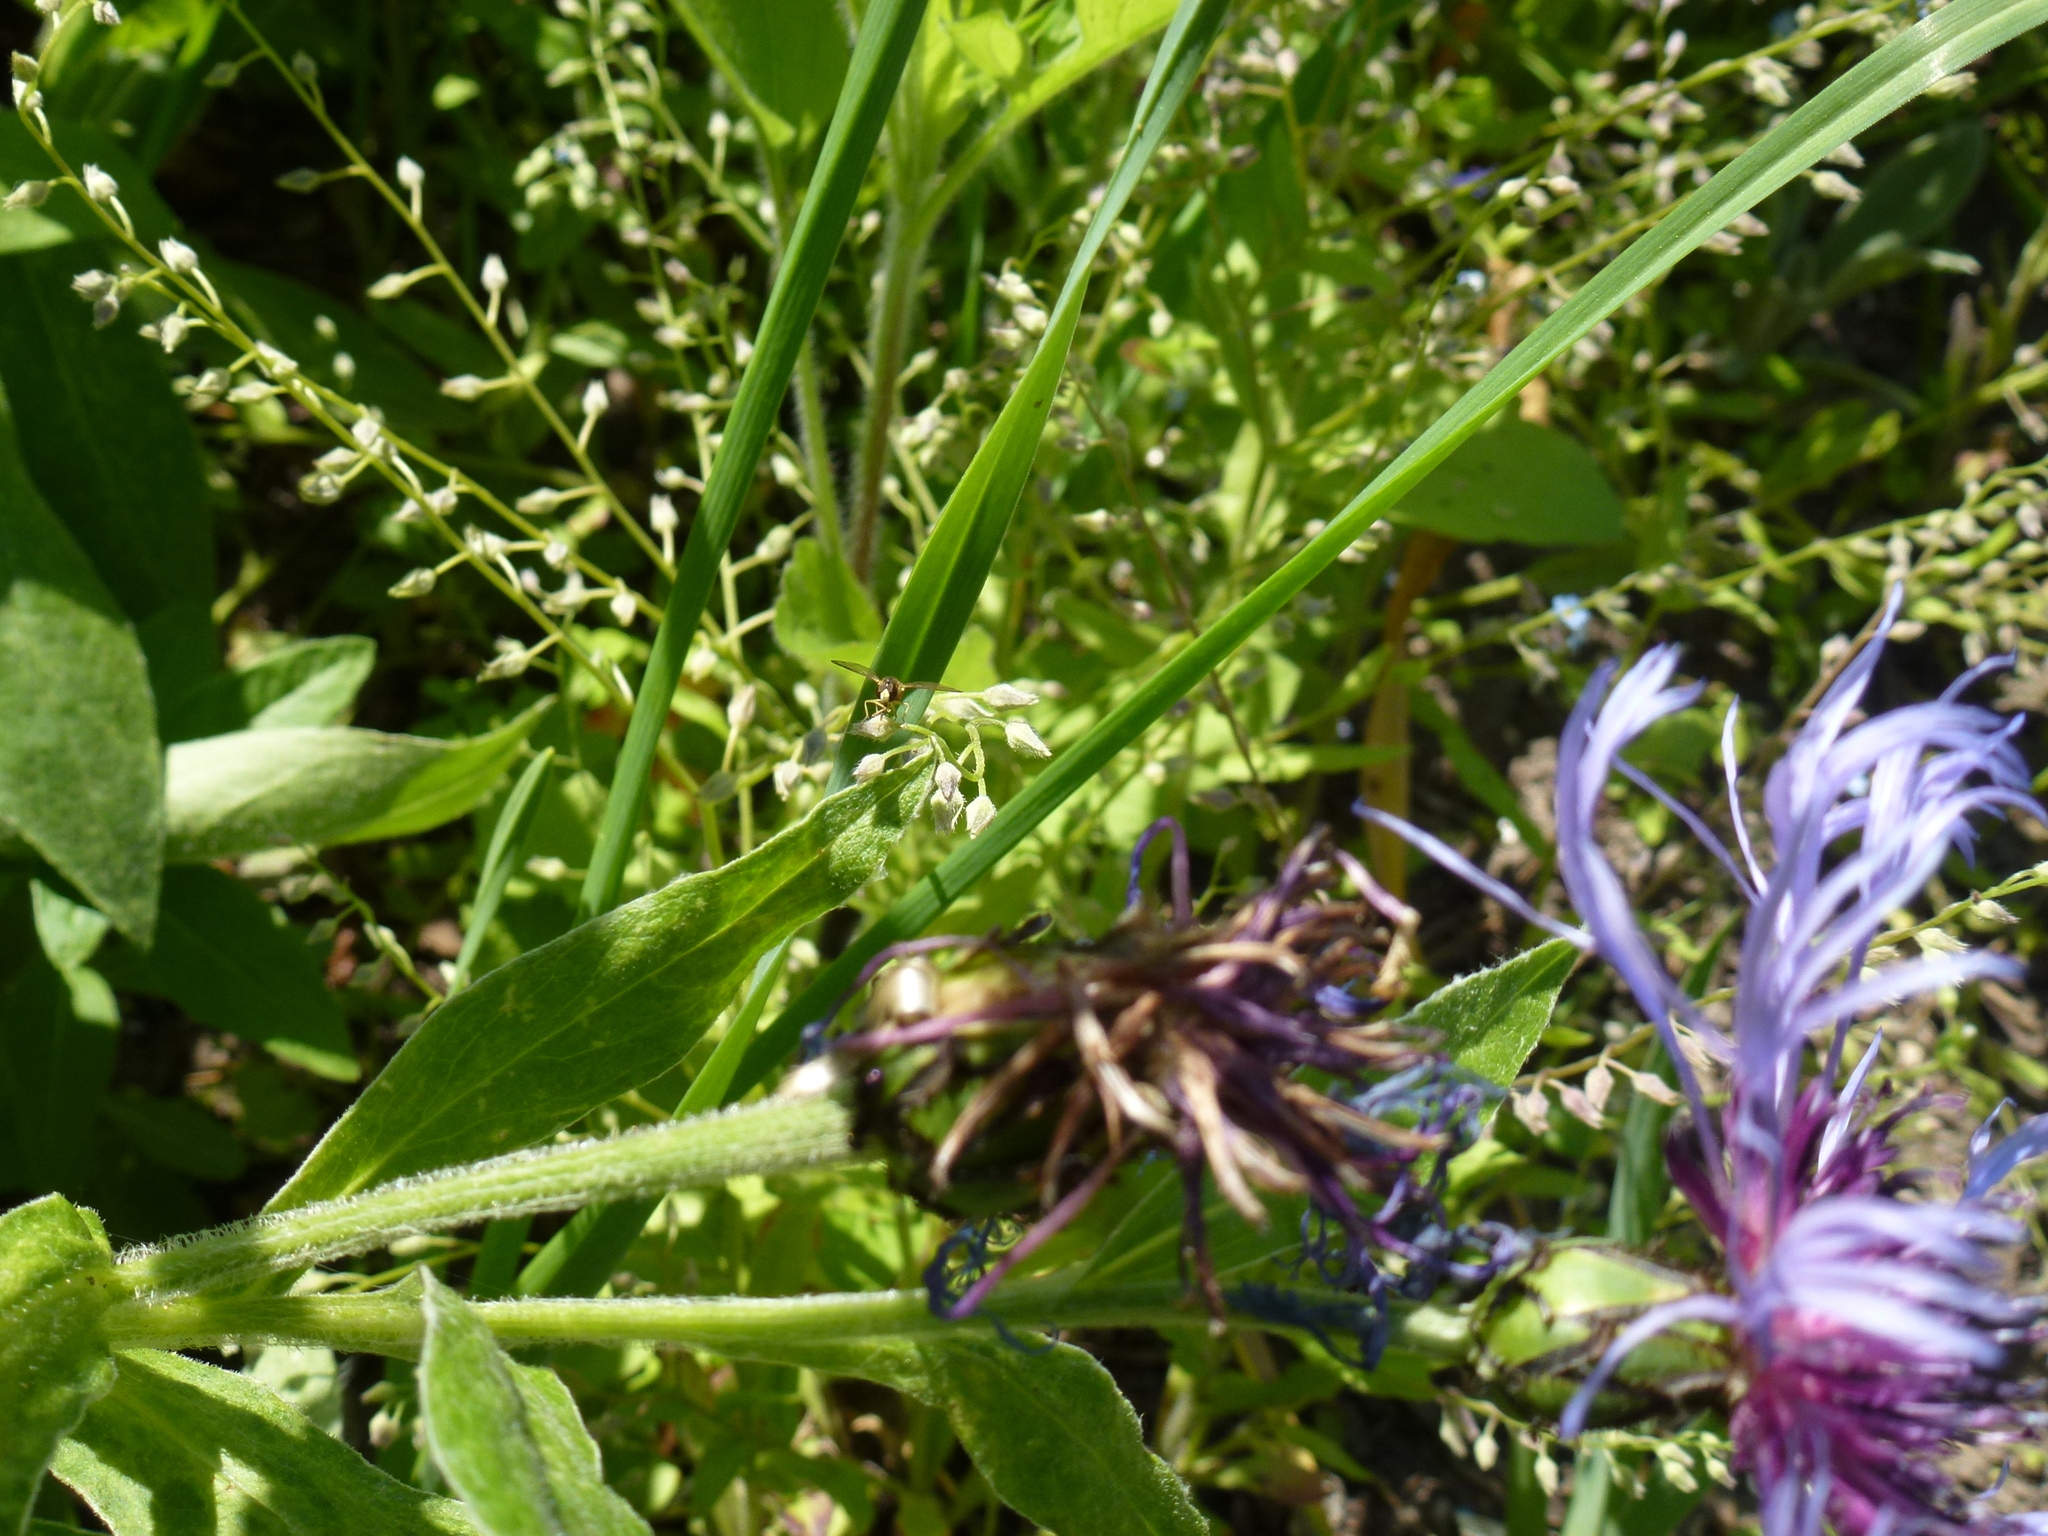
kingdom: Animalia
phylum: Arthropoda
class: Insecta
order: Diptera
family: Syrphidae
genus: Toxomerus
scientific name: Toxomerus marginatus
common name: Syrphid fly
